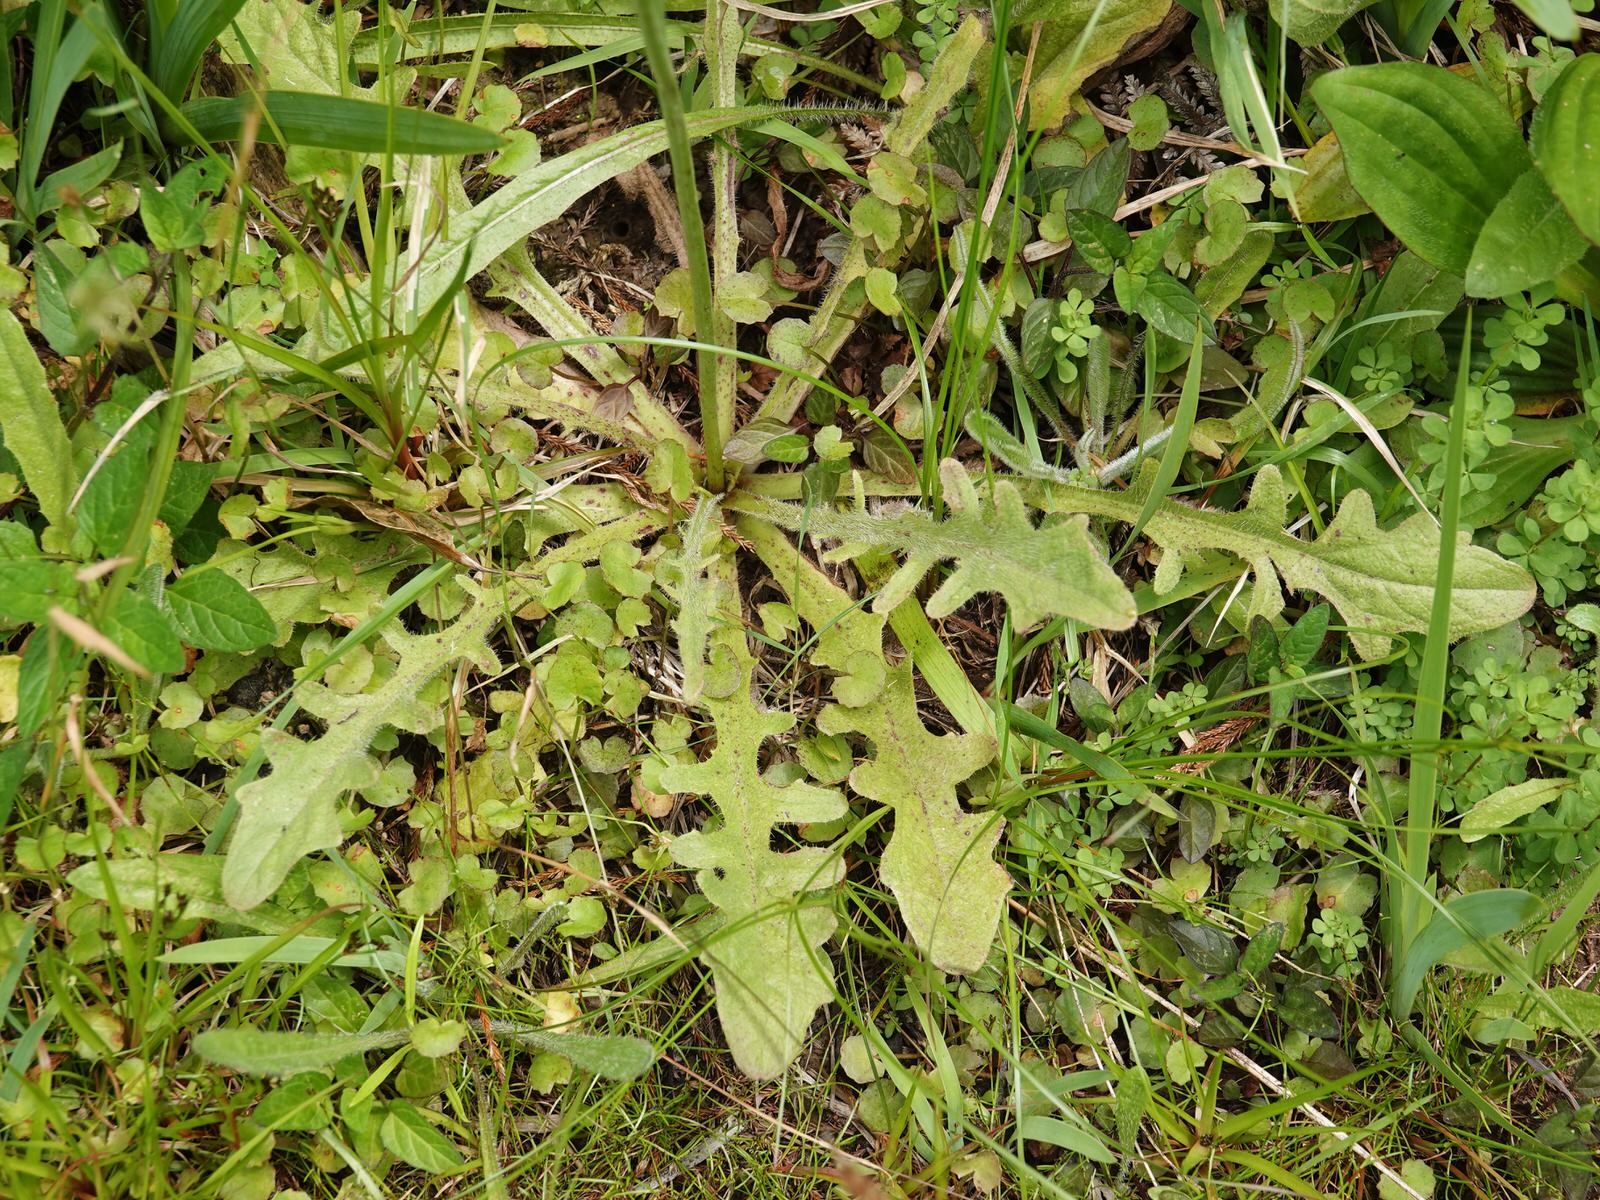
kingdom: Plantae
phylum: Tracheophyta
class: Magnoliopsida
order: Asterales
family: Asteraceae
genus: Hypochaeris
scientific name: Hypochaeris radicata
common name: Flatweed
